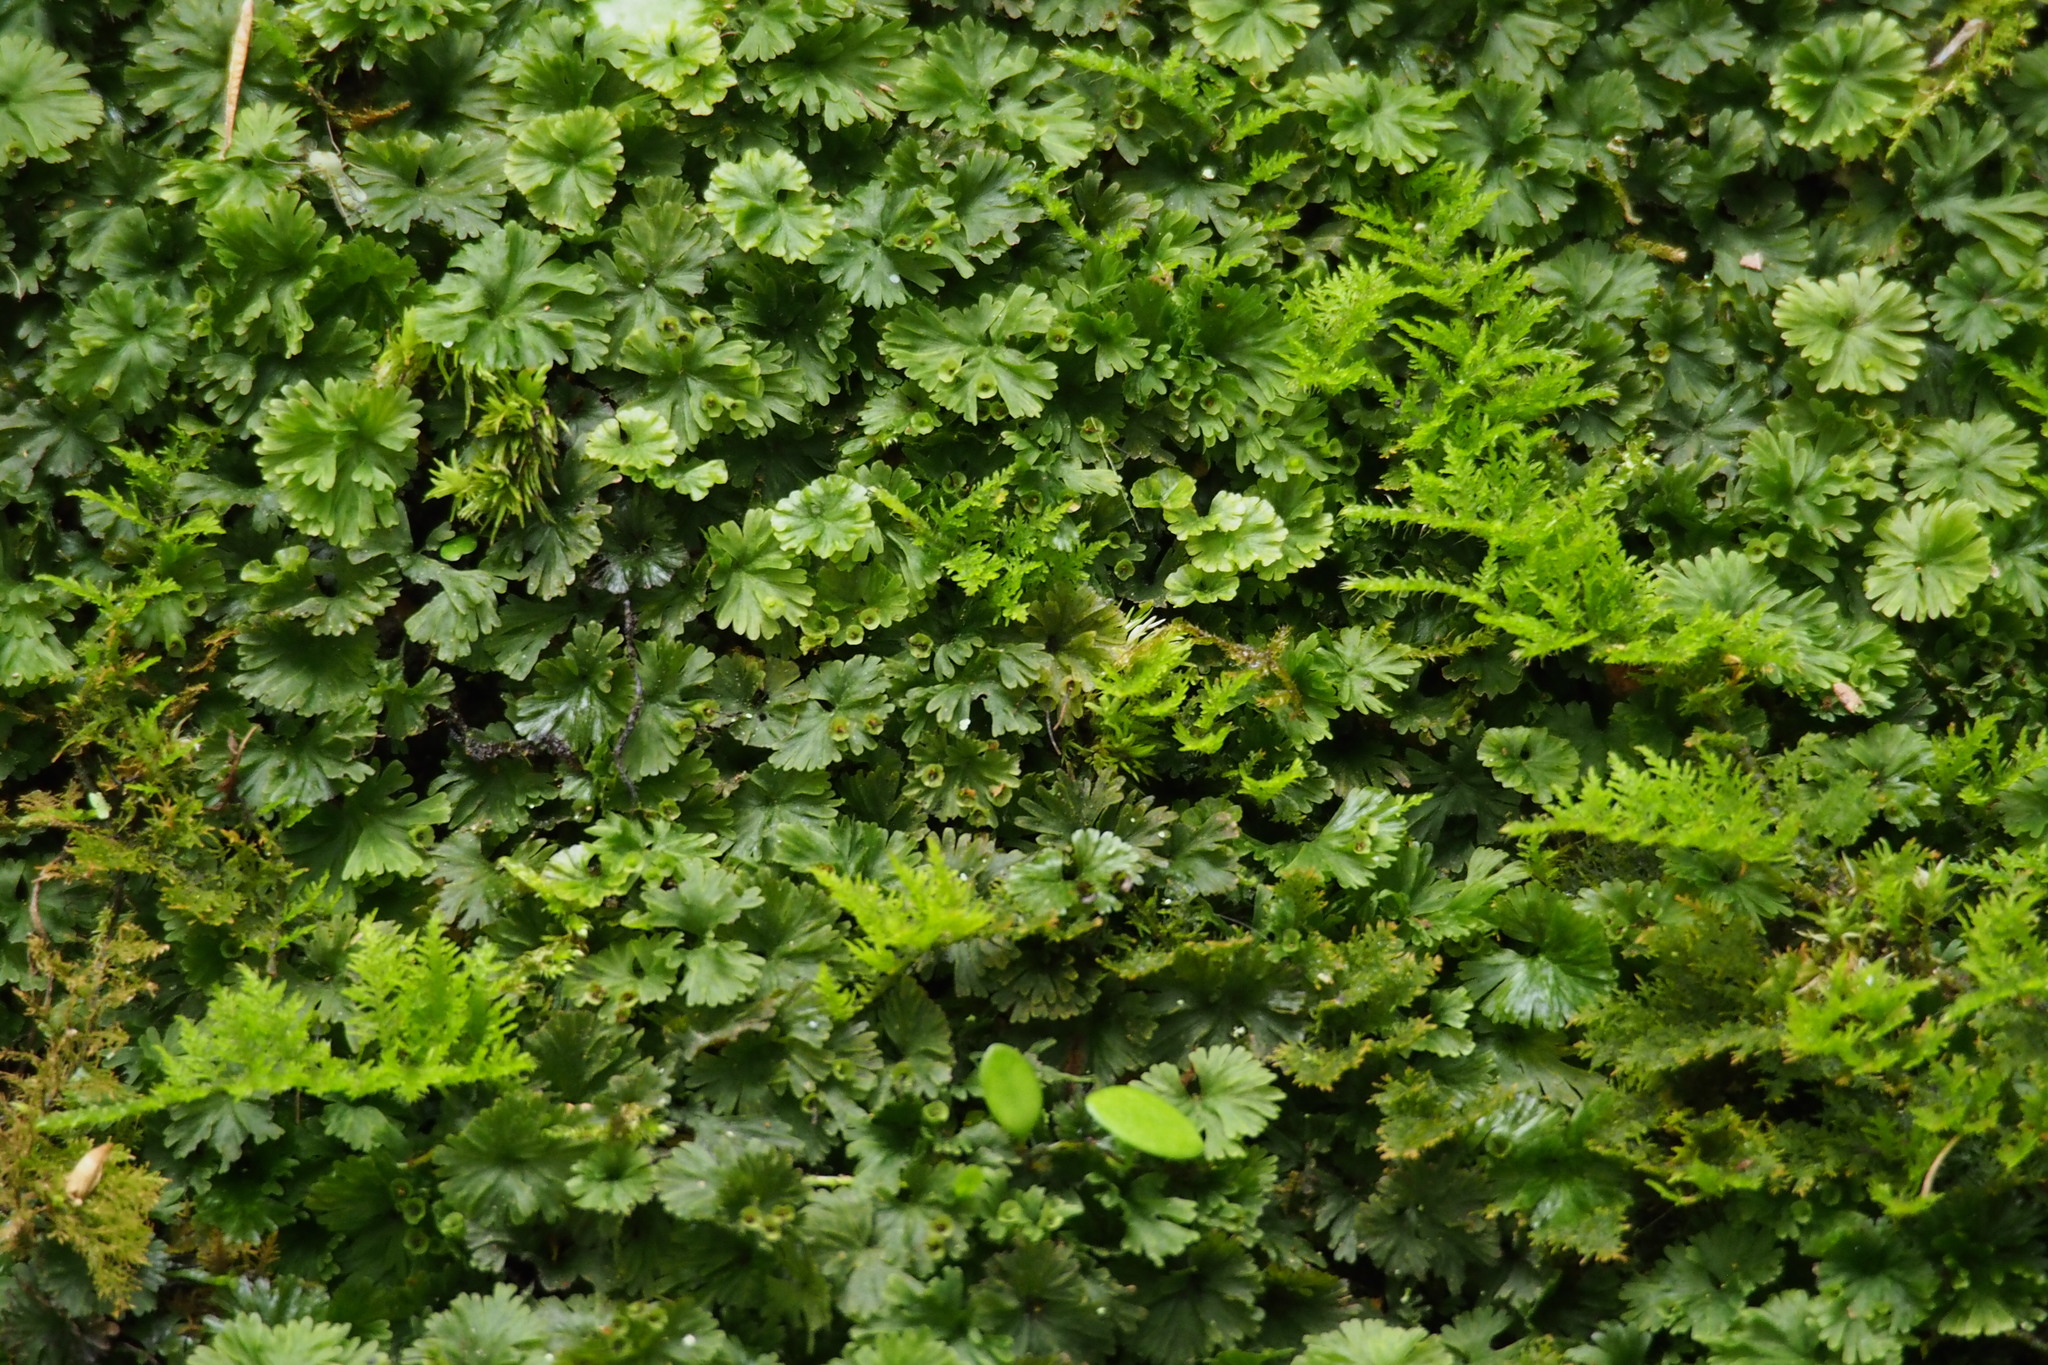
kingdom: Plantae
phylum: Tracheophyta
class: Polypodiopsida
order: Hymenophyllales
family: Hymenophyllaceae
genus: Crepidomanes
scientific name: Crepidomanes parvulum
